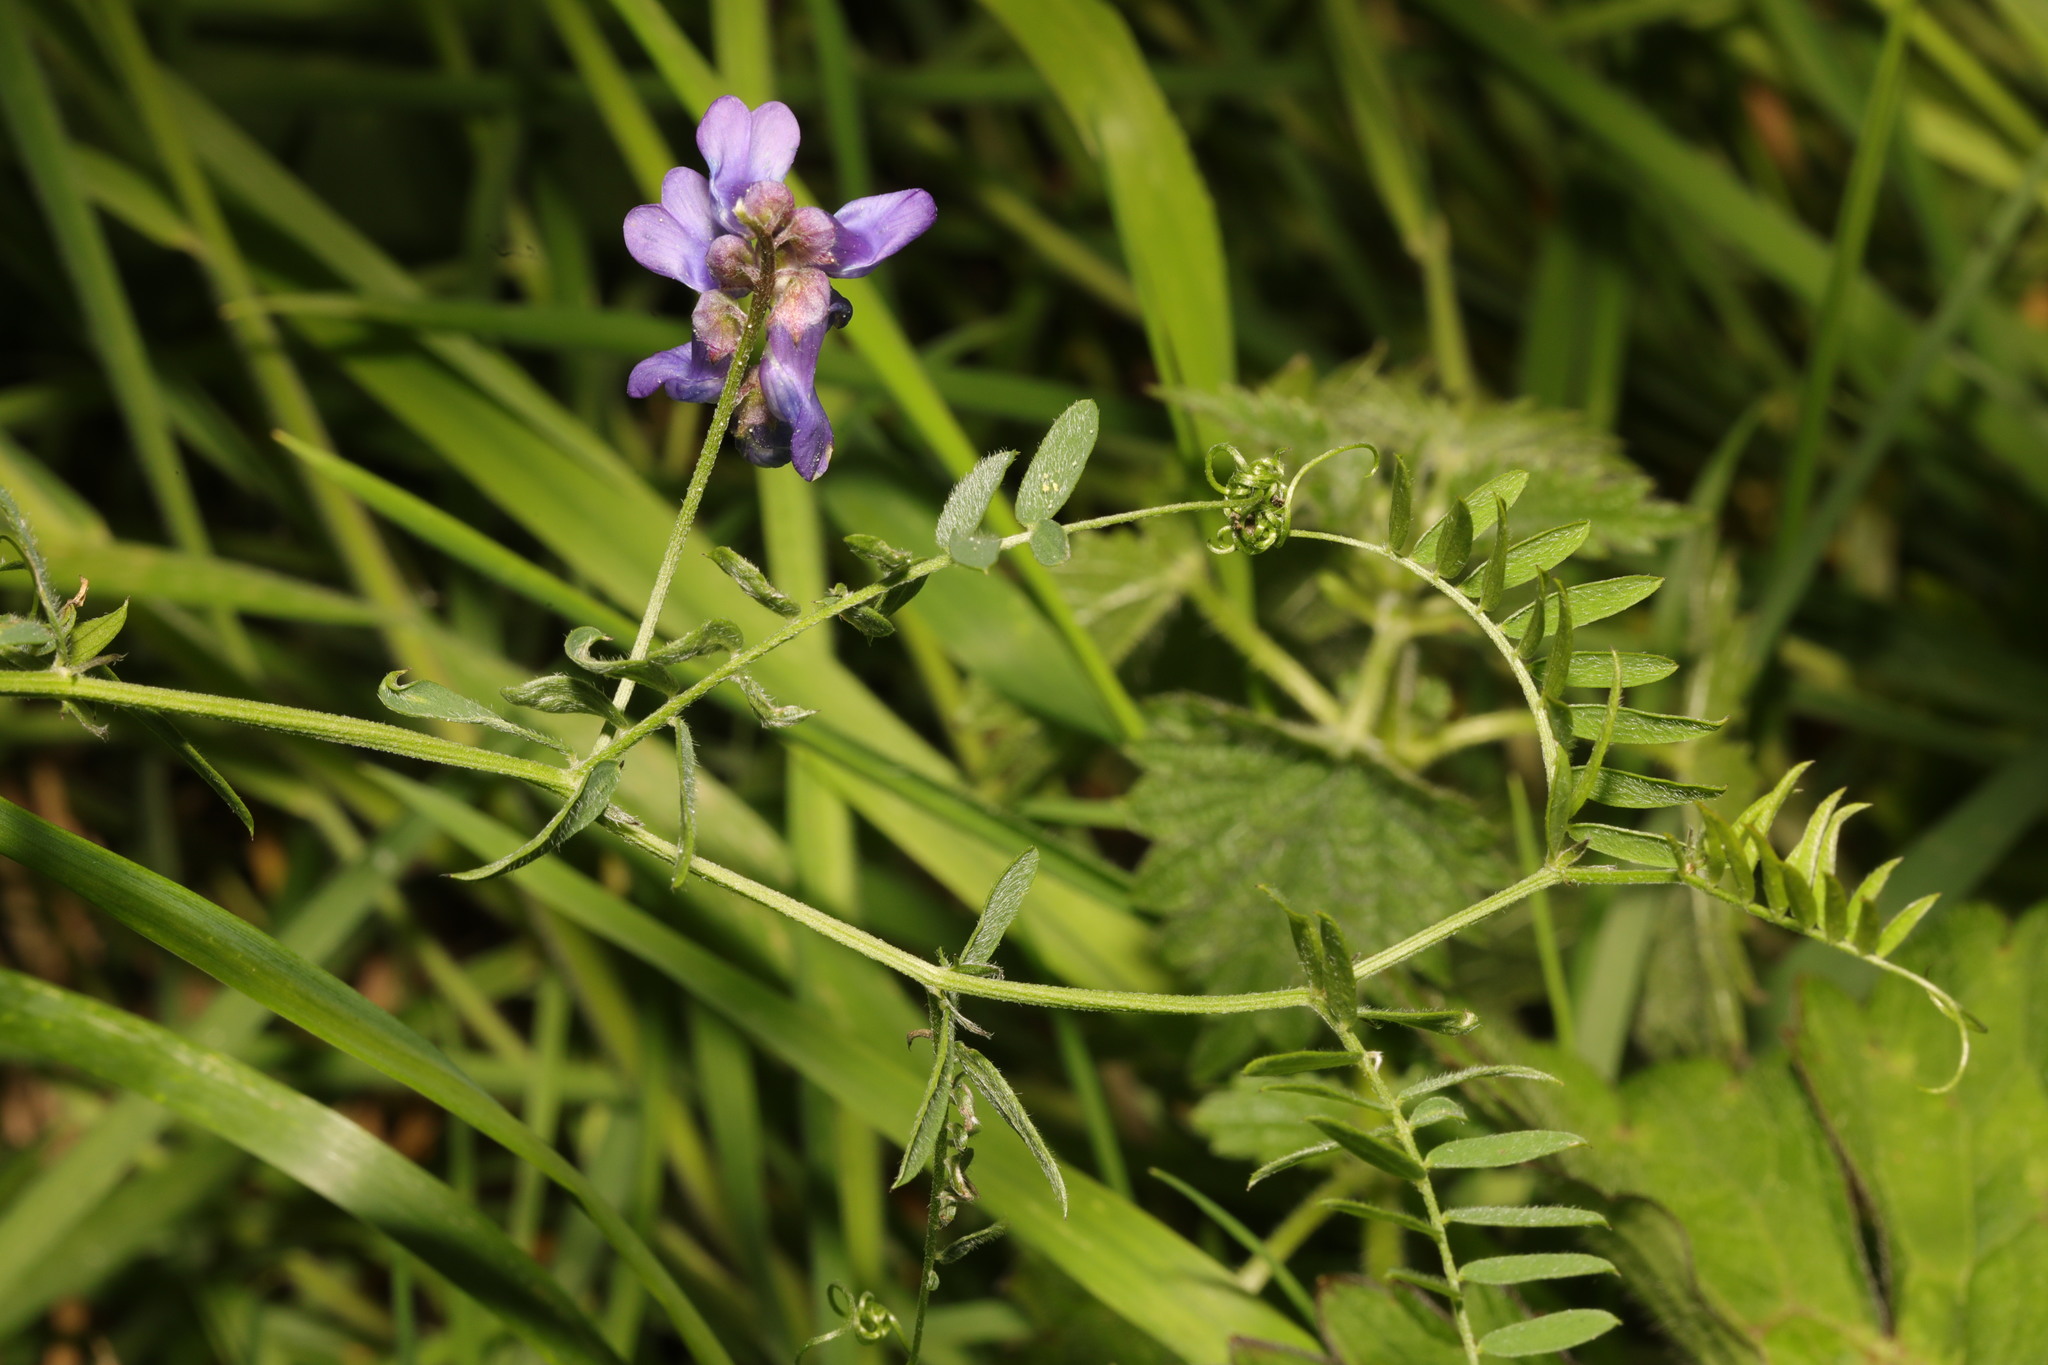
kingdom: Plantae
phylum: Tracheophyta
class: Magnoliopsida
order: Fabales
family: Fabaceae
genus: Vicia
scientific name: Vicia cracca
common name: Bird vetch
